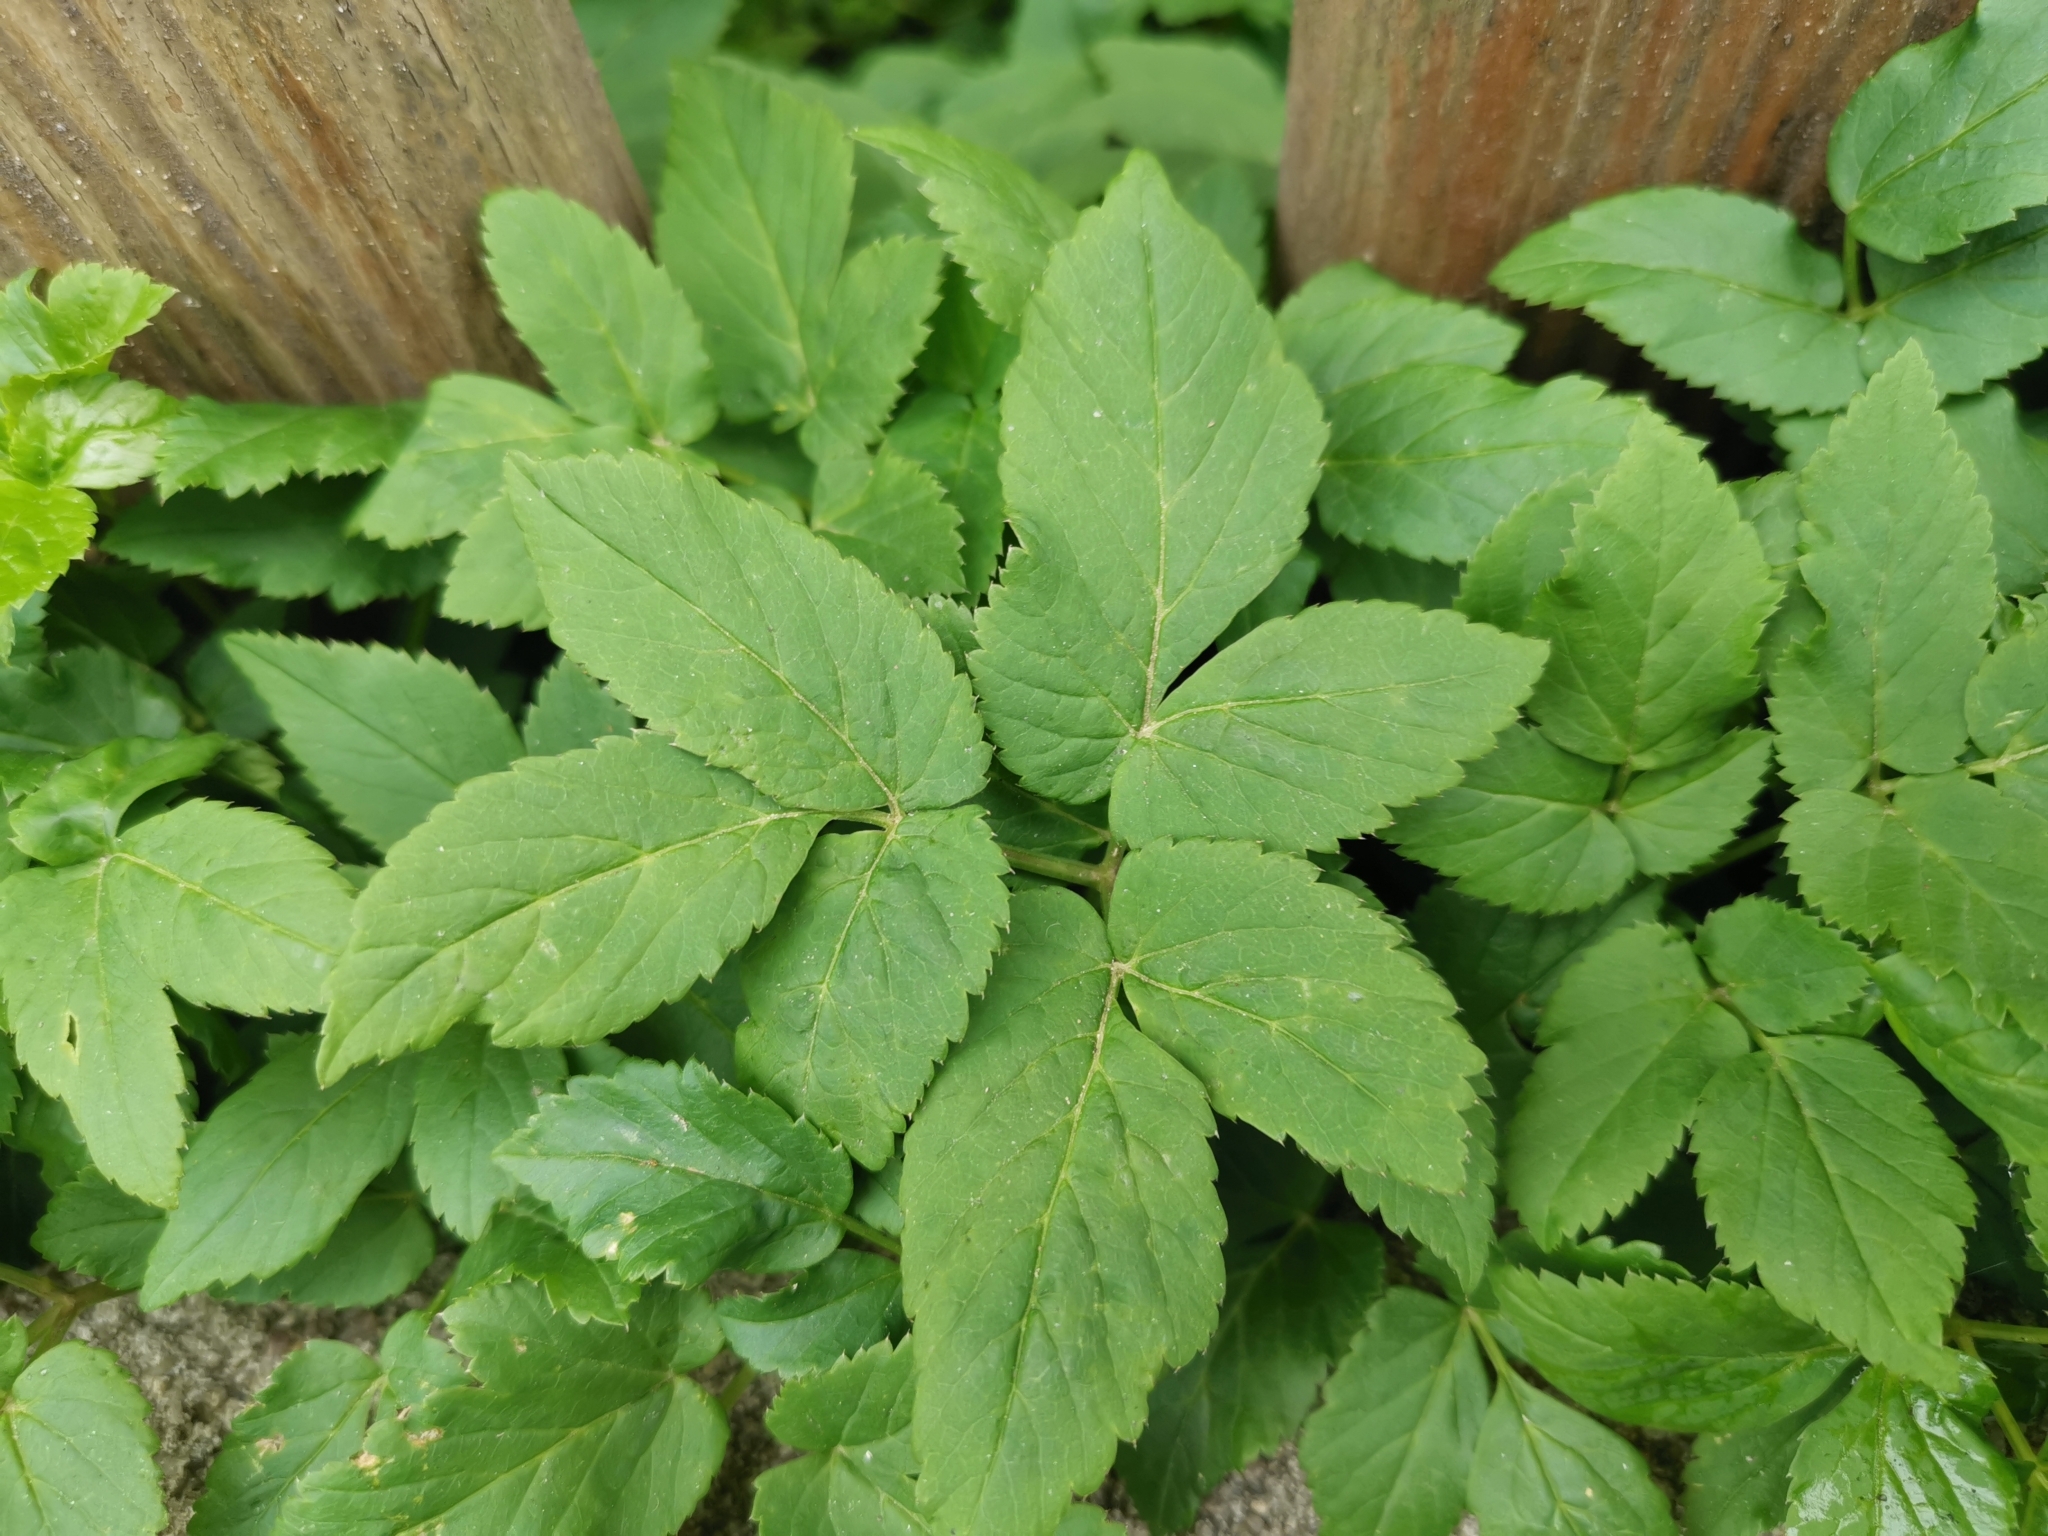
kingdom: Plantae
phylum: Tracheophyta
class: Magnoliopsida
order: Apiales
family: Apiaceae
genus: Aegopodium
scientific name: Aegopodium podagraria
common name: Ground-elder
